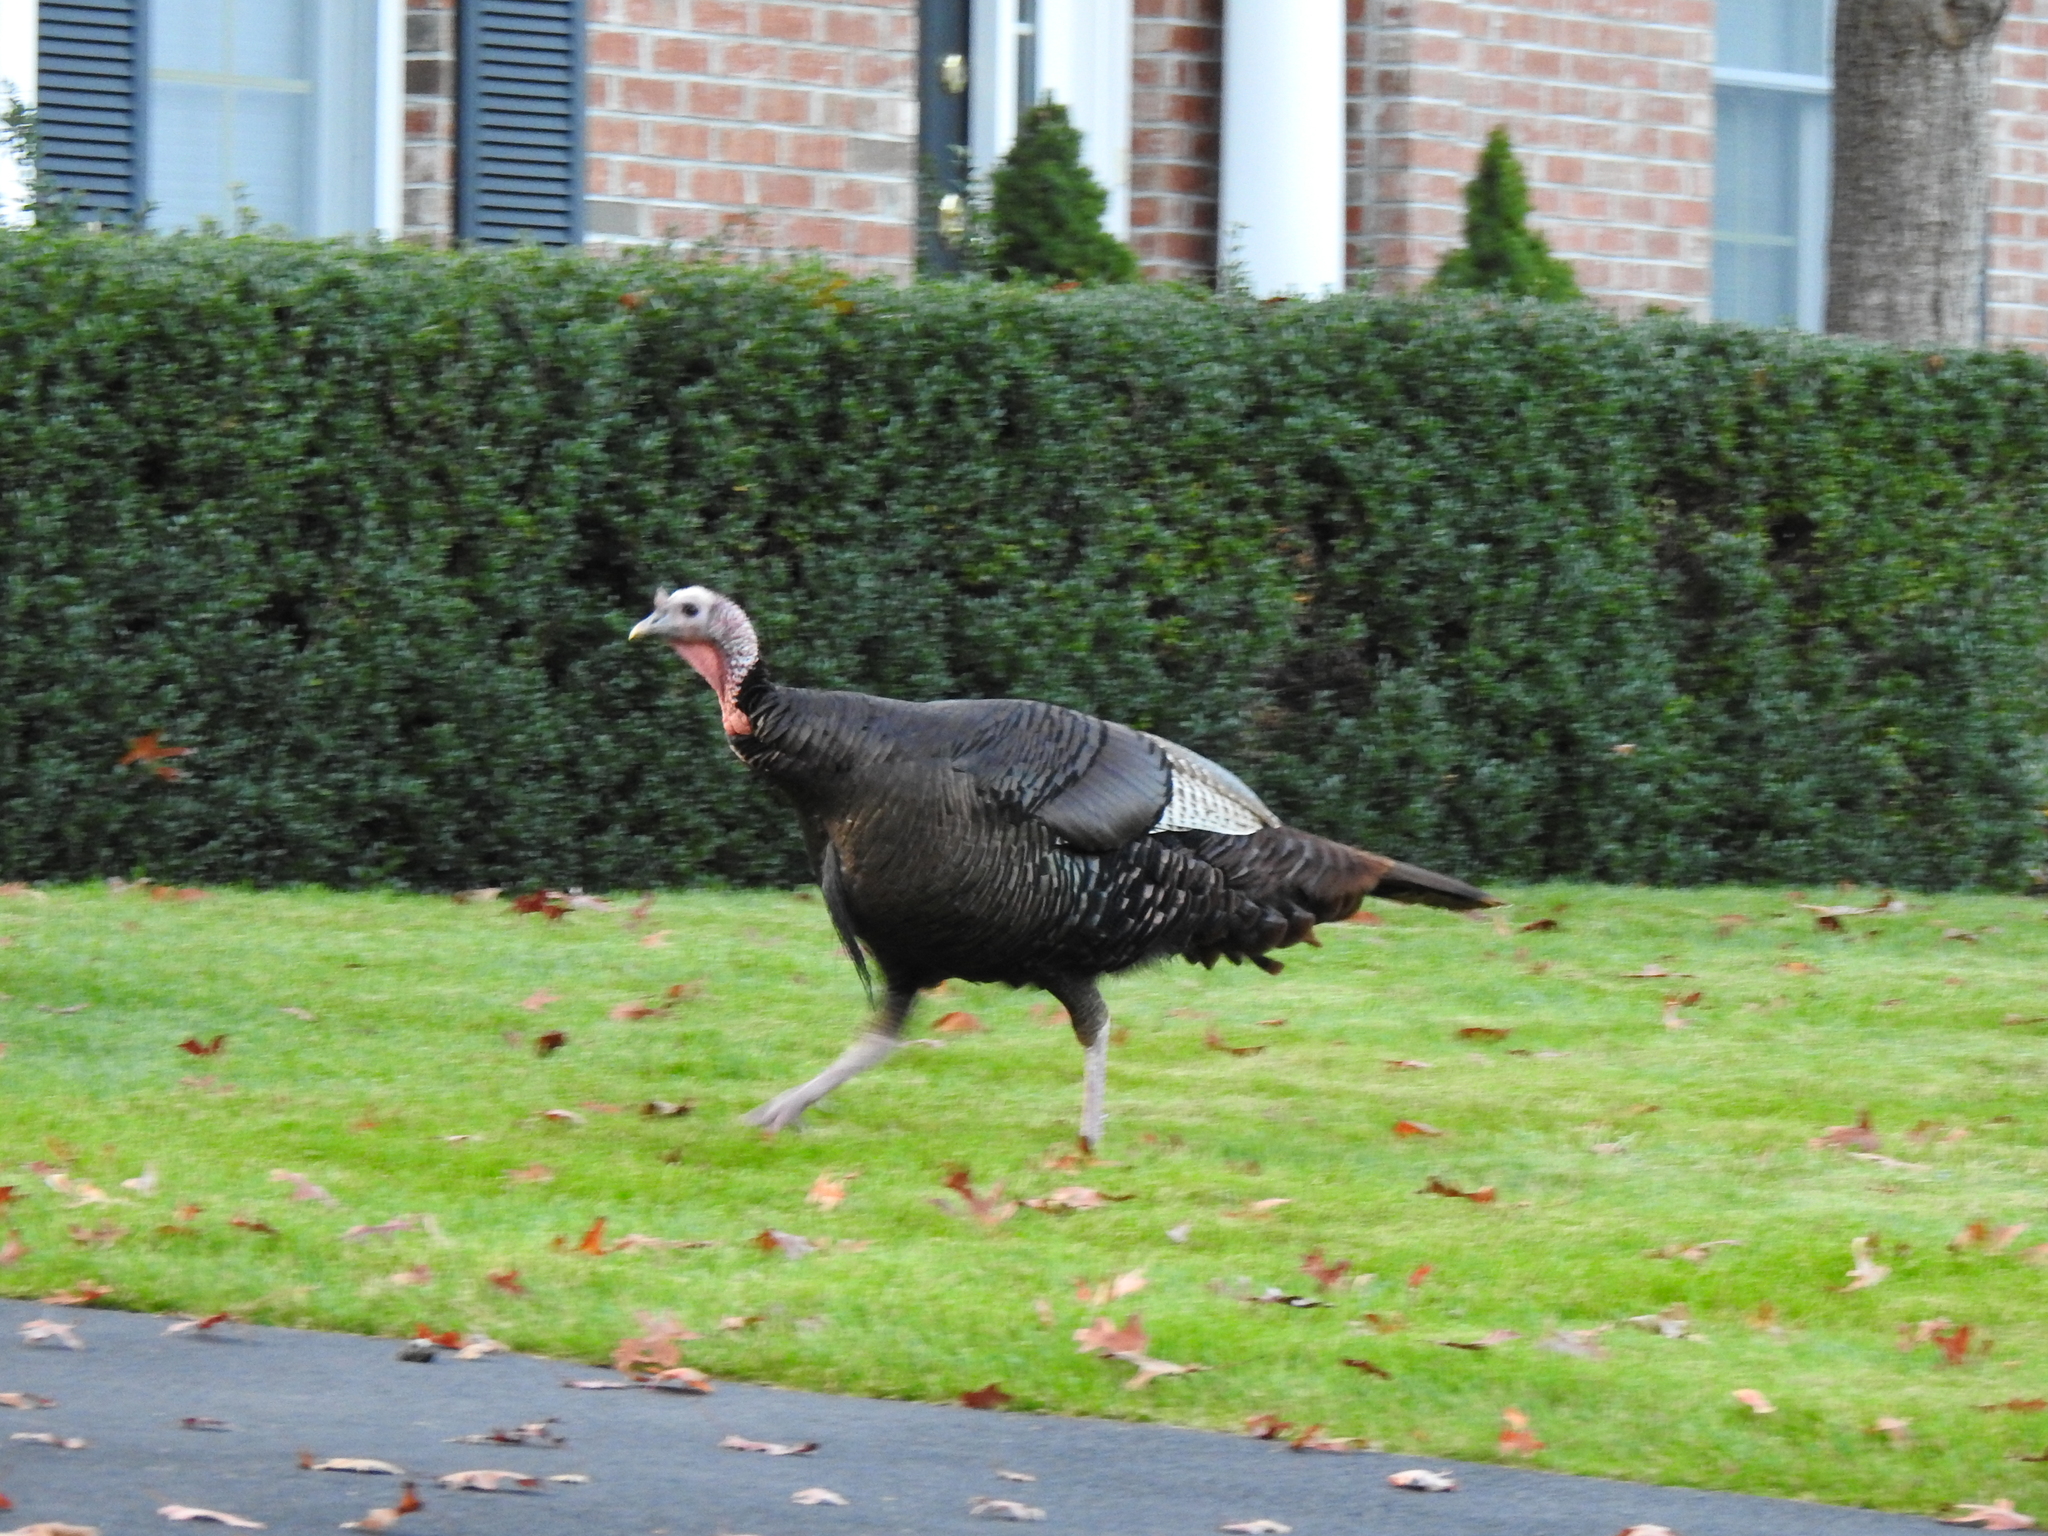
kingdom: Animalia
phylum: Chordata
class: Aves
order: Galliformes
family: Phasianidae
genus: Meleagris
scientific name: Meleagris gallopavo
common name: Wild turkey
